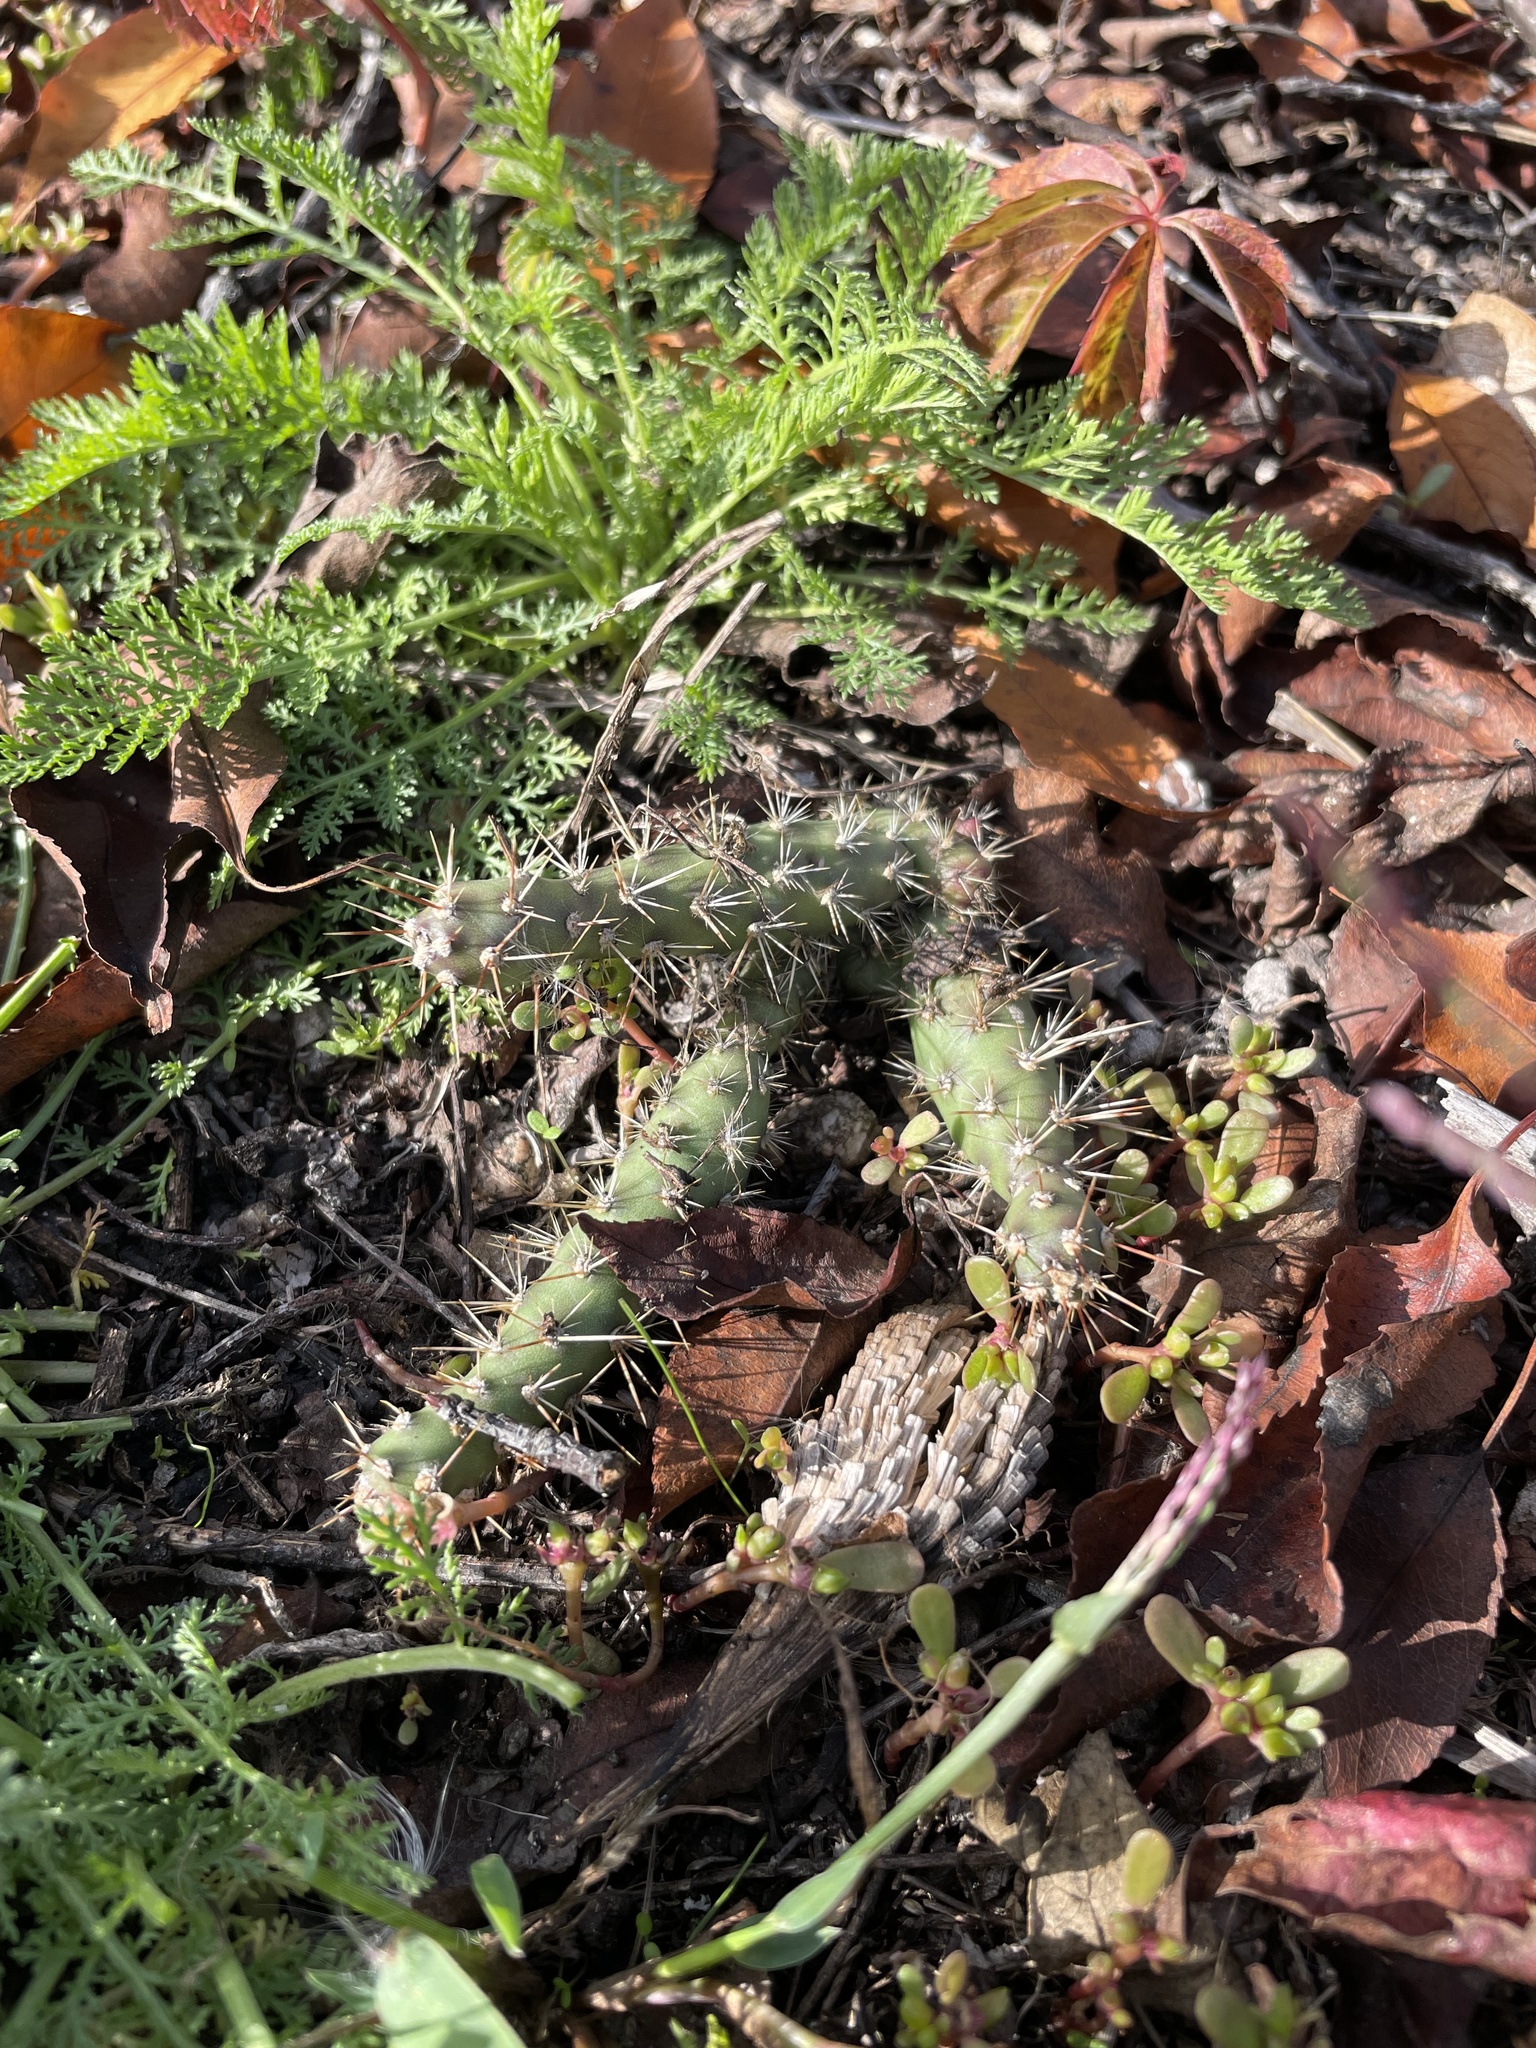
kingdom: Plantae
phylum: Tracheophyta
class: Magnoliopsida
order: Caryophyllales
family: Cactaceae
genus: Opuntia
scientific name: Opuntia fragilis
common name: Brittle cactus
